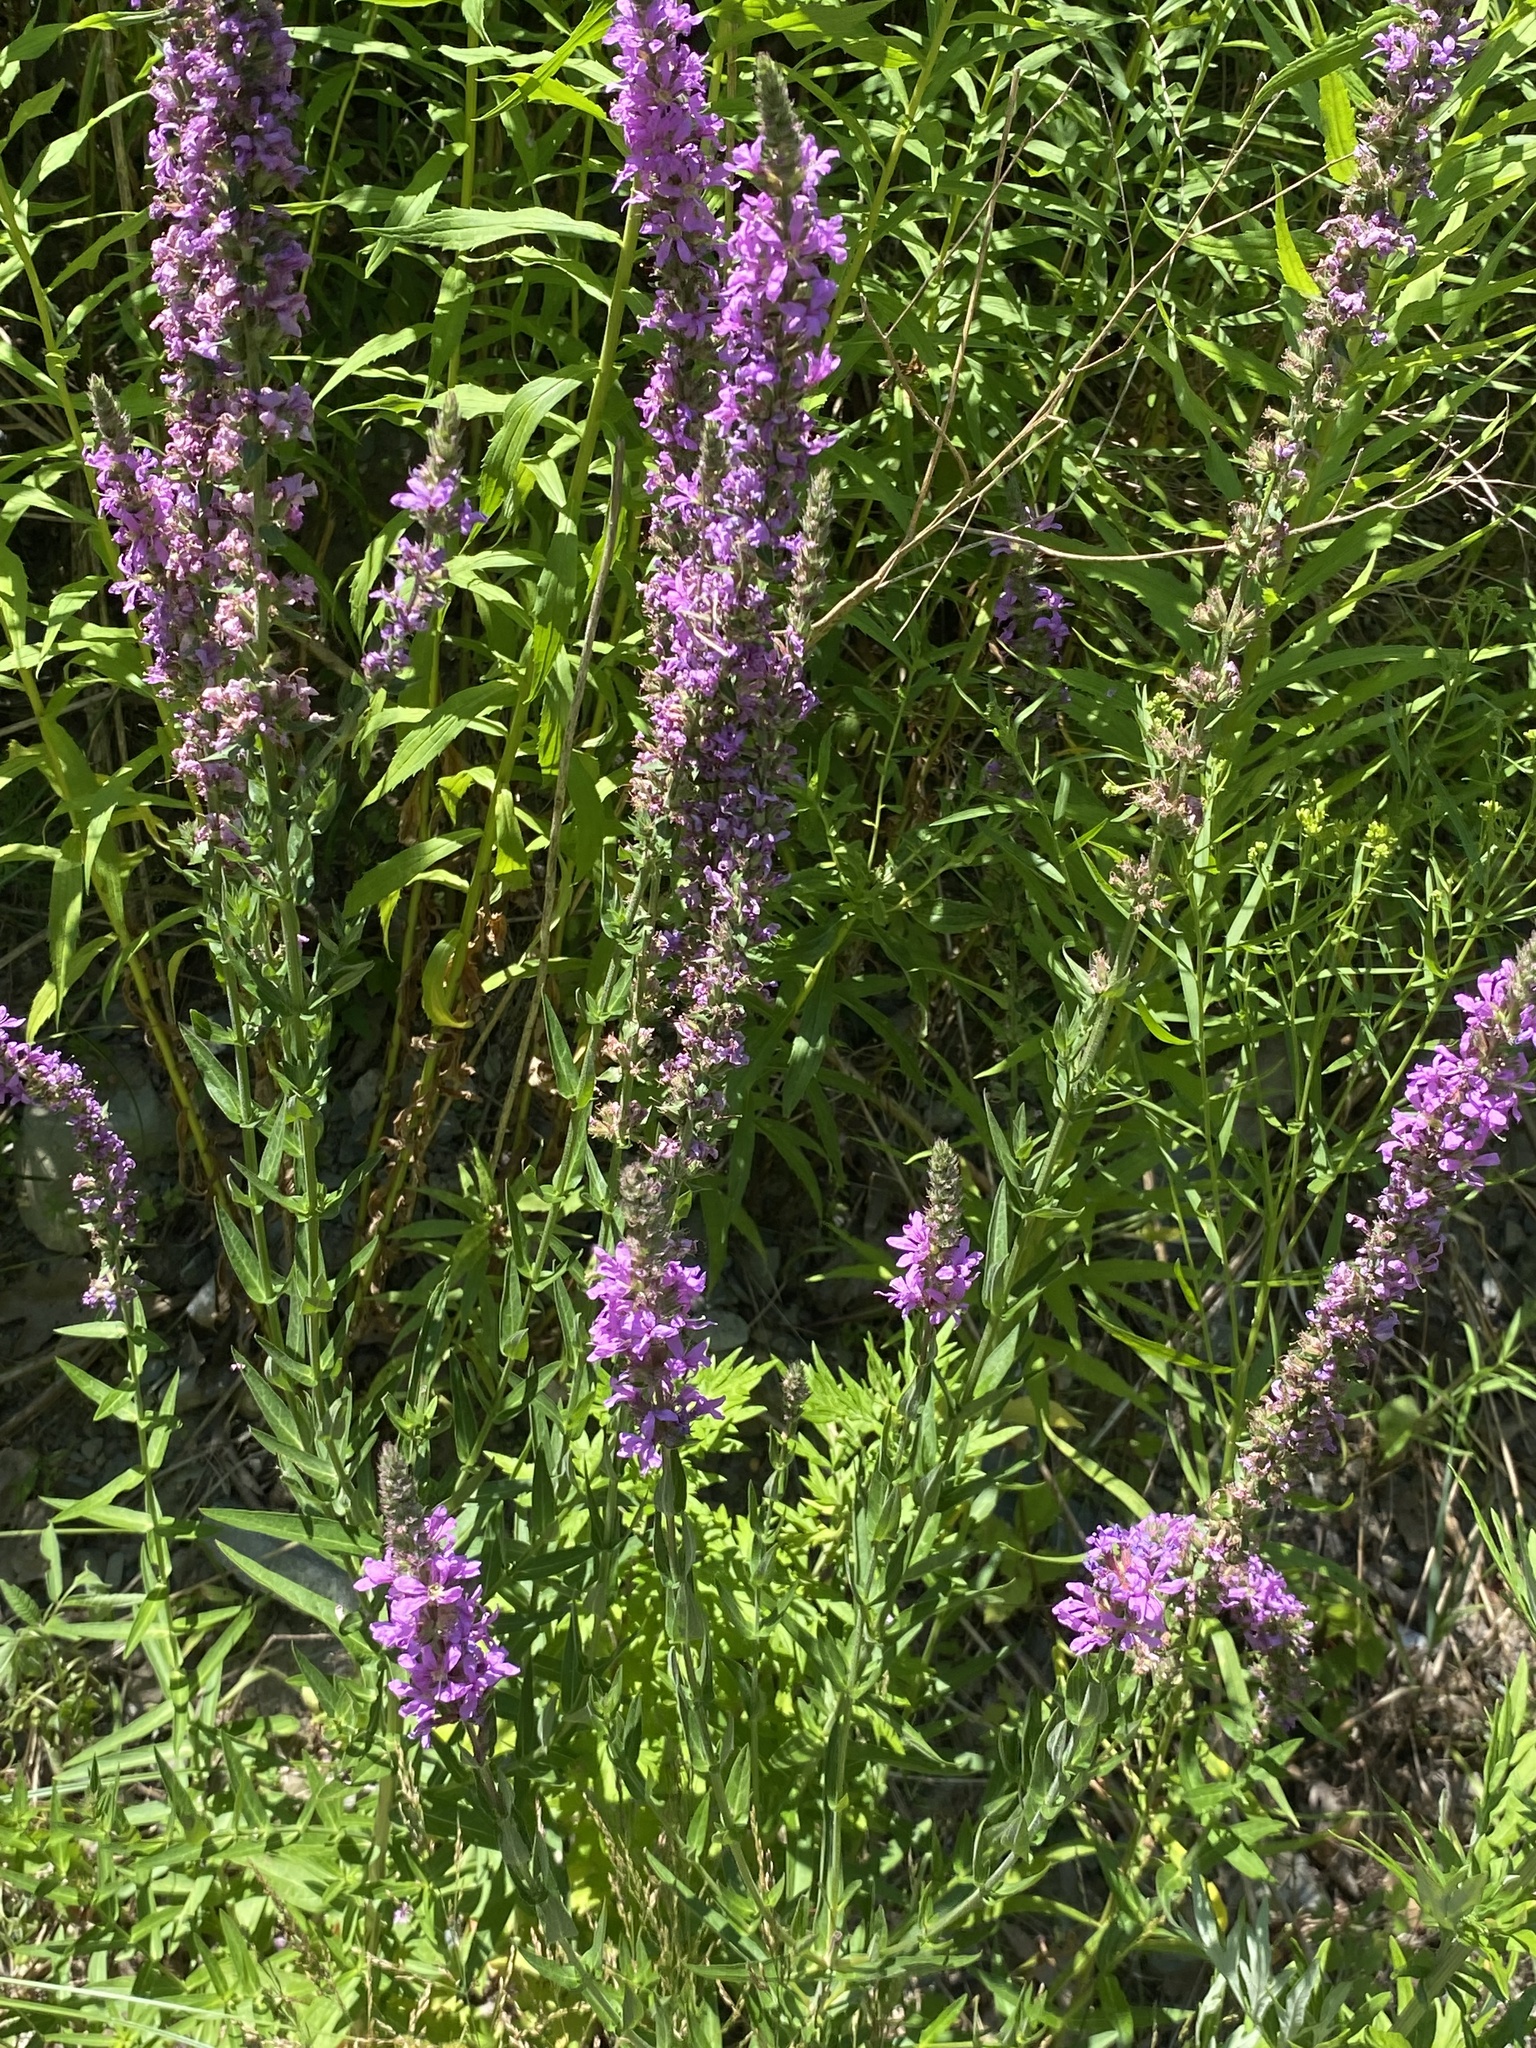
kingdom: Plantae
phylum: Tracheophyta
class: Magnoliopsida
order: Myrtales
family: Lythraceae
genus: Lythrum
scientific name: Lythrum salicaria
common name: Purple loosestrife
